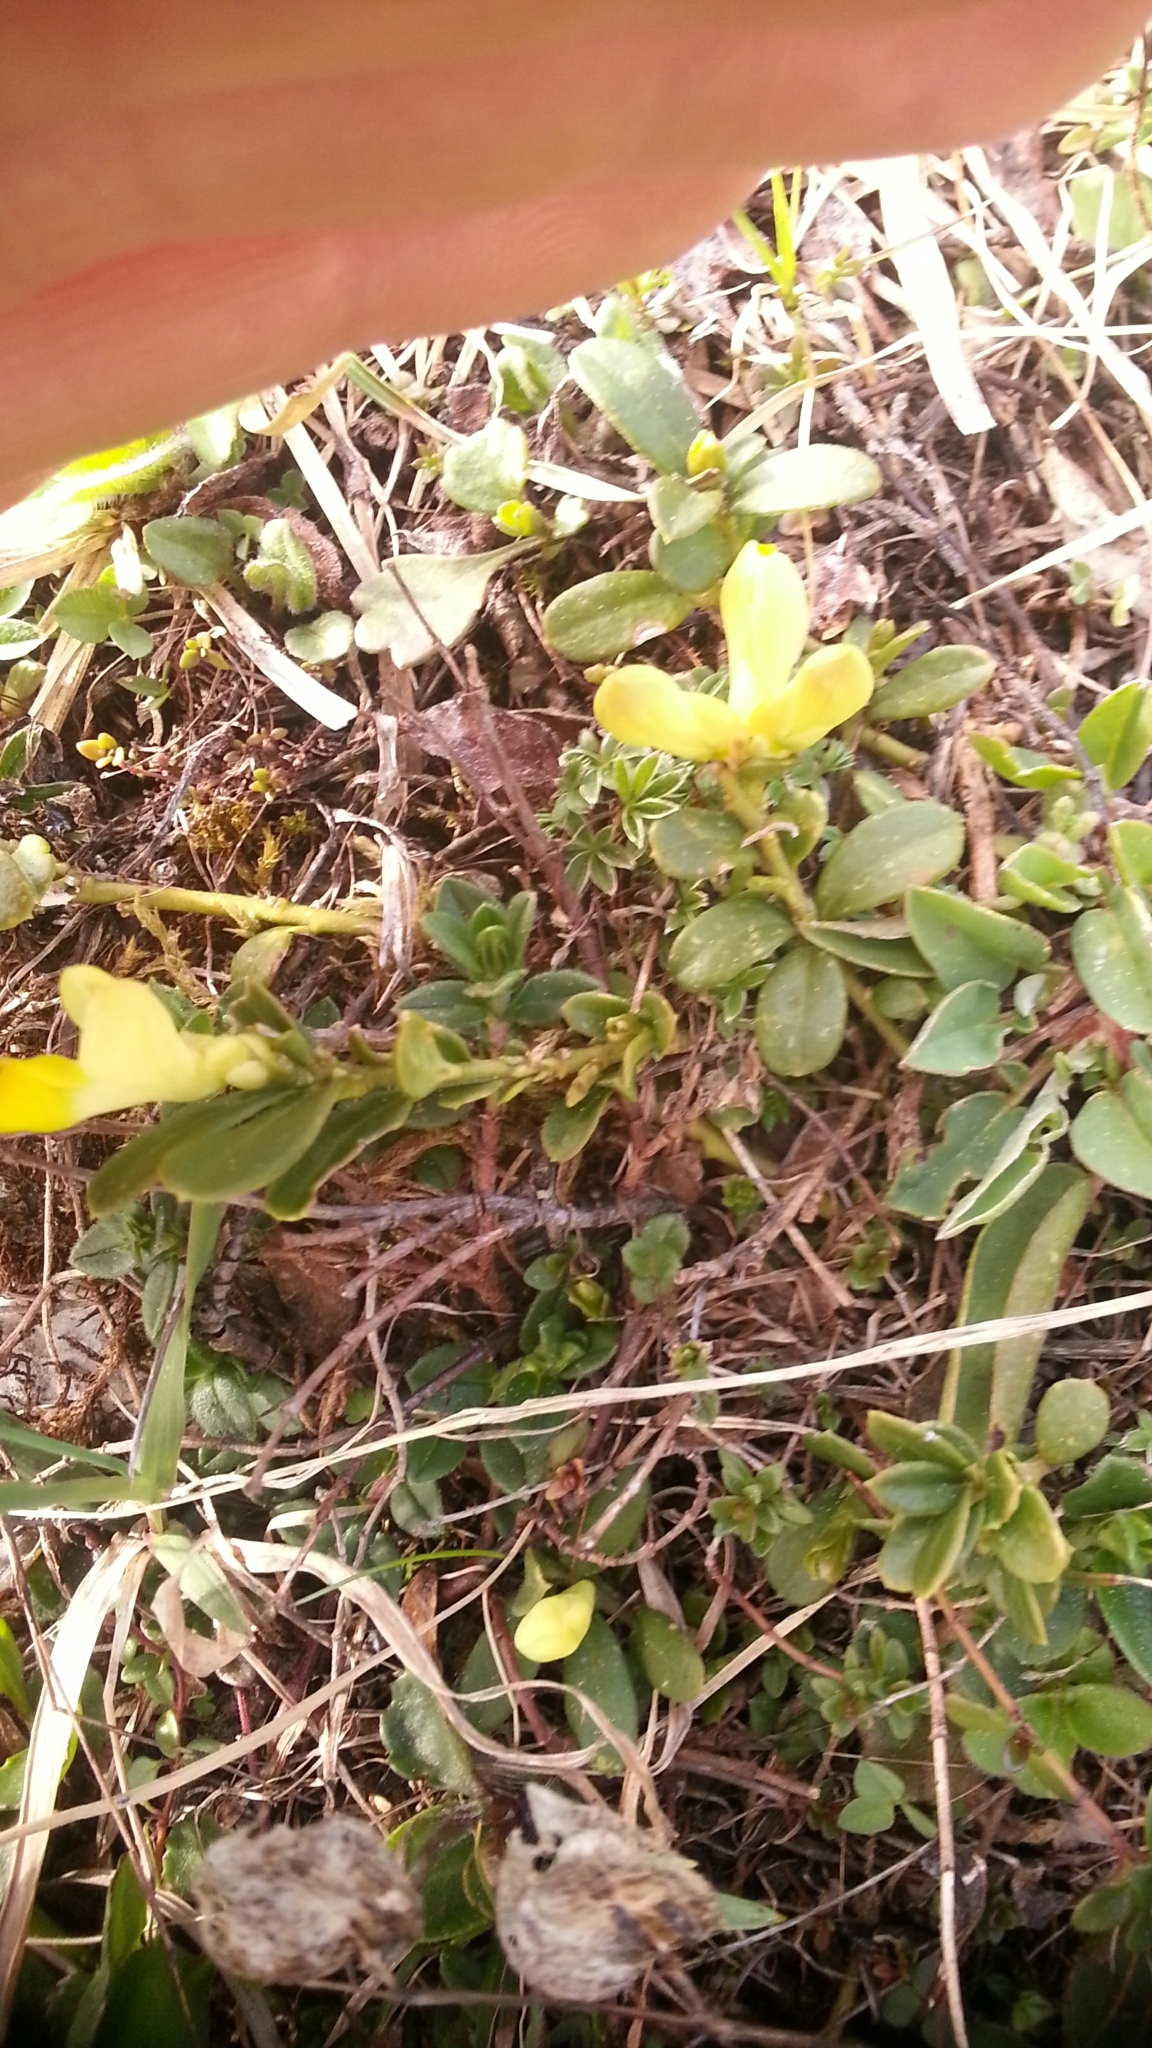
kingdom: Plantae
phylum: Tracheophyta
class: Magnoliopsida
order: Fabales
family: Polygalaceae
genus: Polygaloides
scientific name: Polygaloides chamaebuxus
